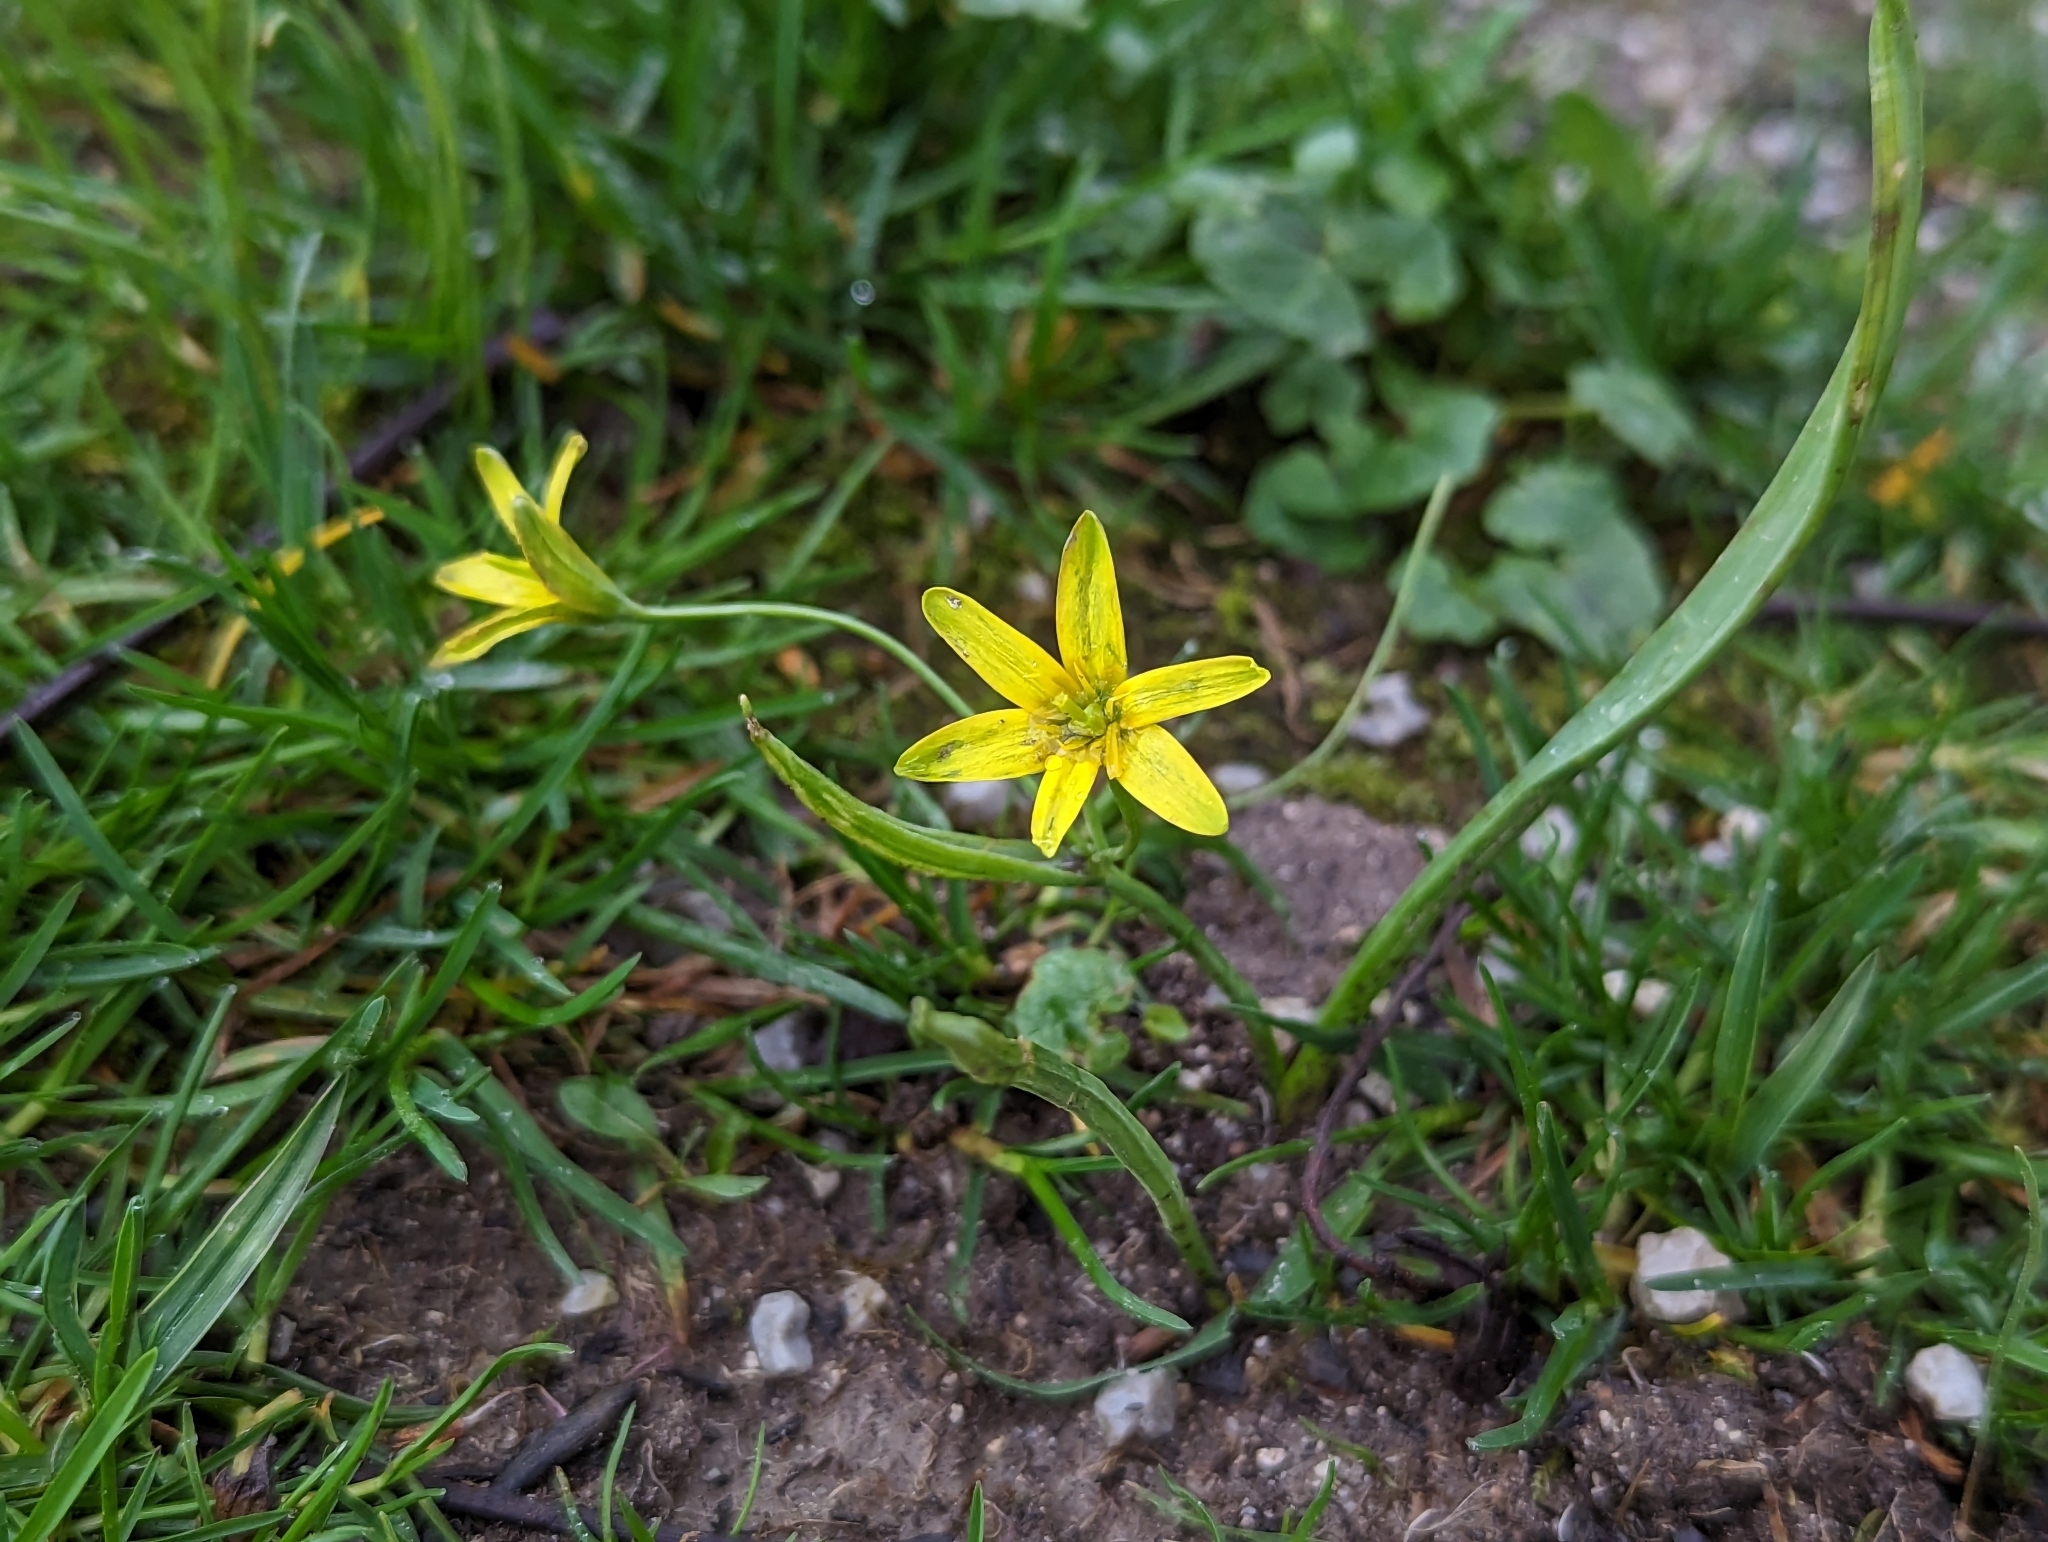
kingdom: Plantae
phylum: Tracheophyta
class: Liliopsida
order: Liliales
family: Liliaceae
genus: Gagea
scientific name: Gagea lutea
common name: Yellow star-of-bethlehem
